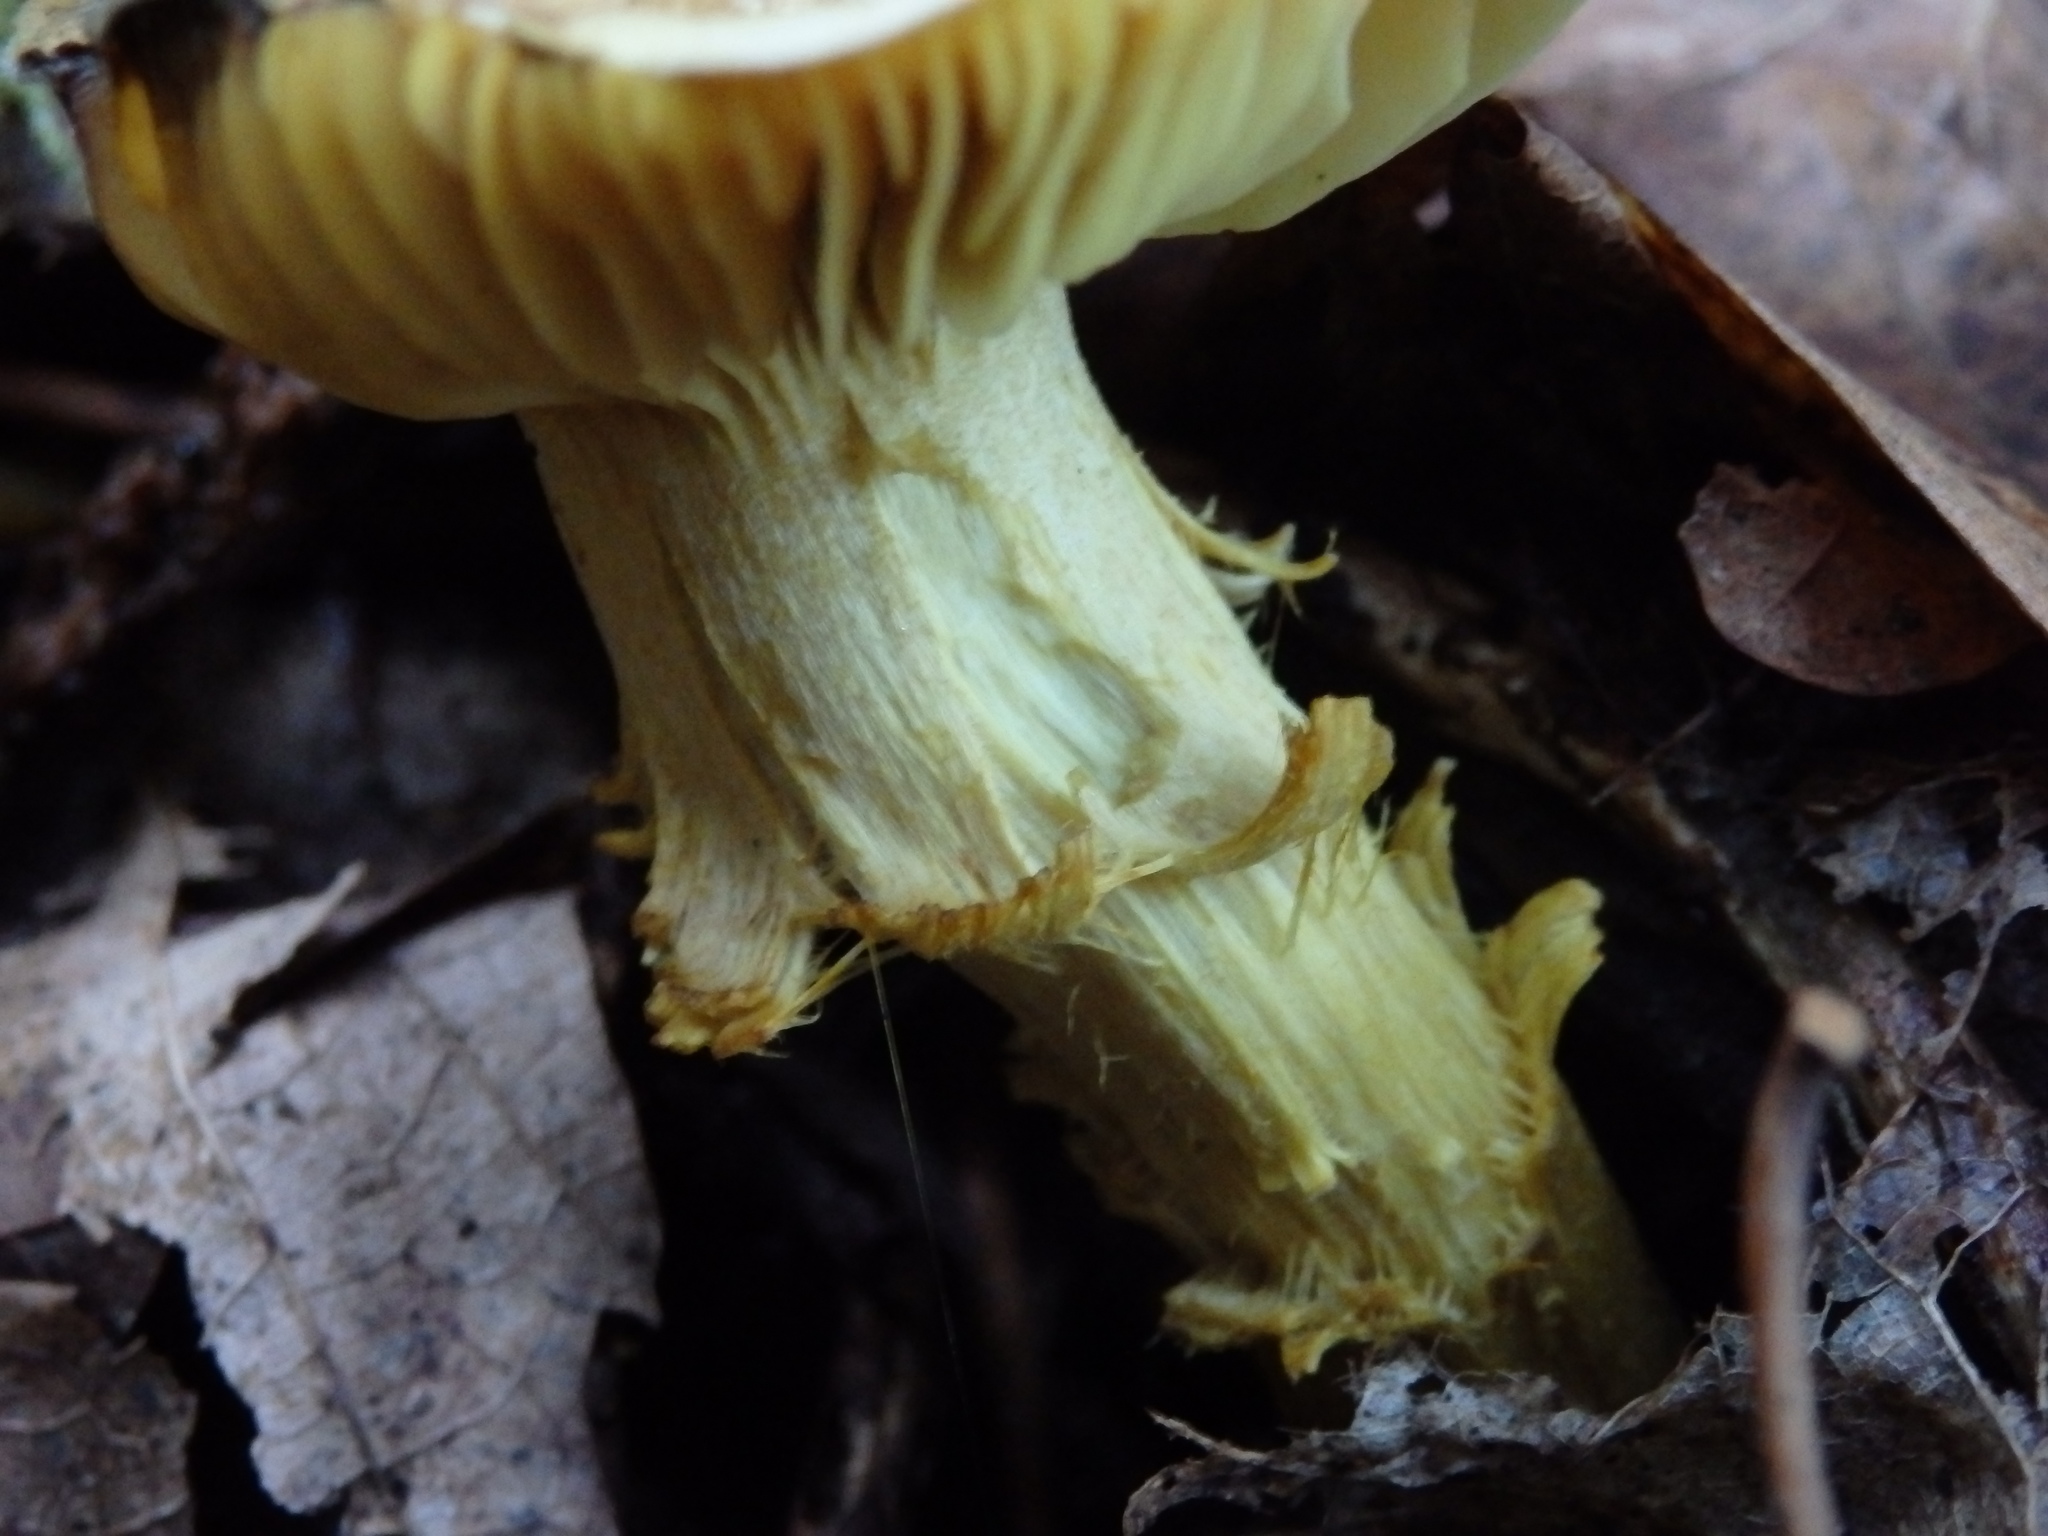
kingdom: Fungi
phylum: Basidiomycota
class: Agaricomycetes
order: Agaricales
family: Tricholomataceae
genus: Tricholoma
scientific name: Tricholoma sulphureum
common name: Stinky knight
